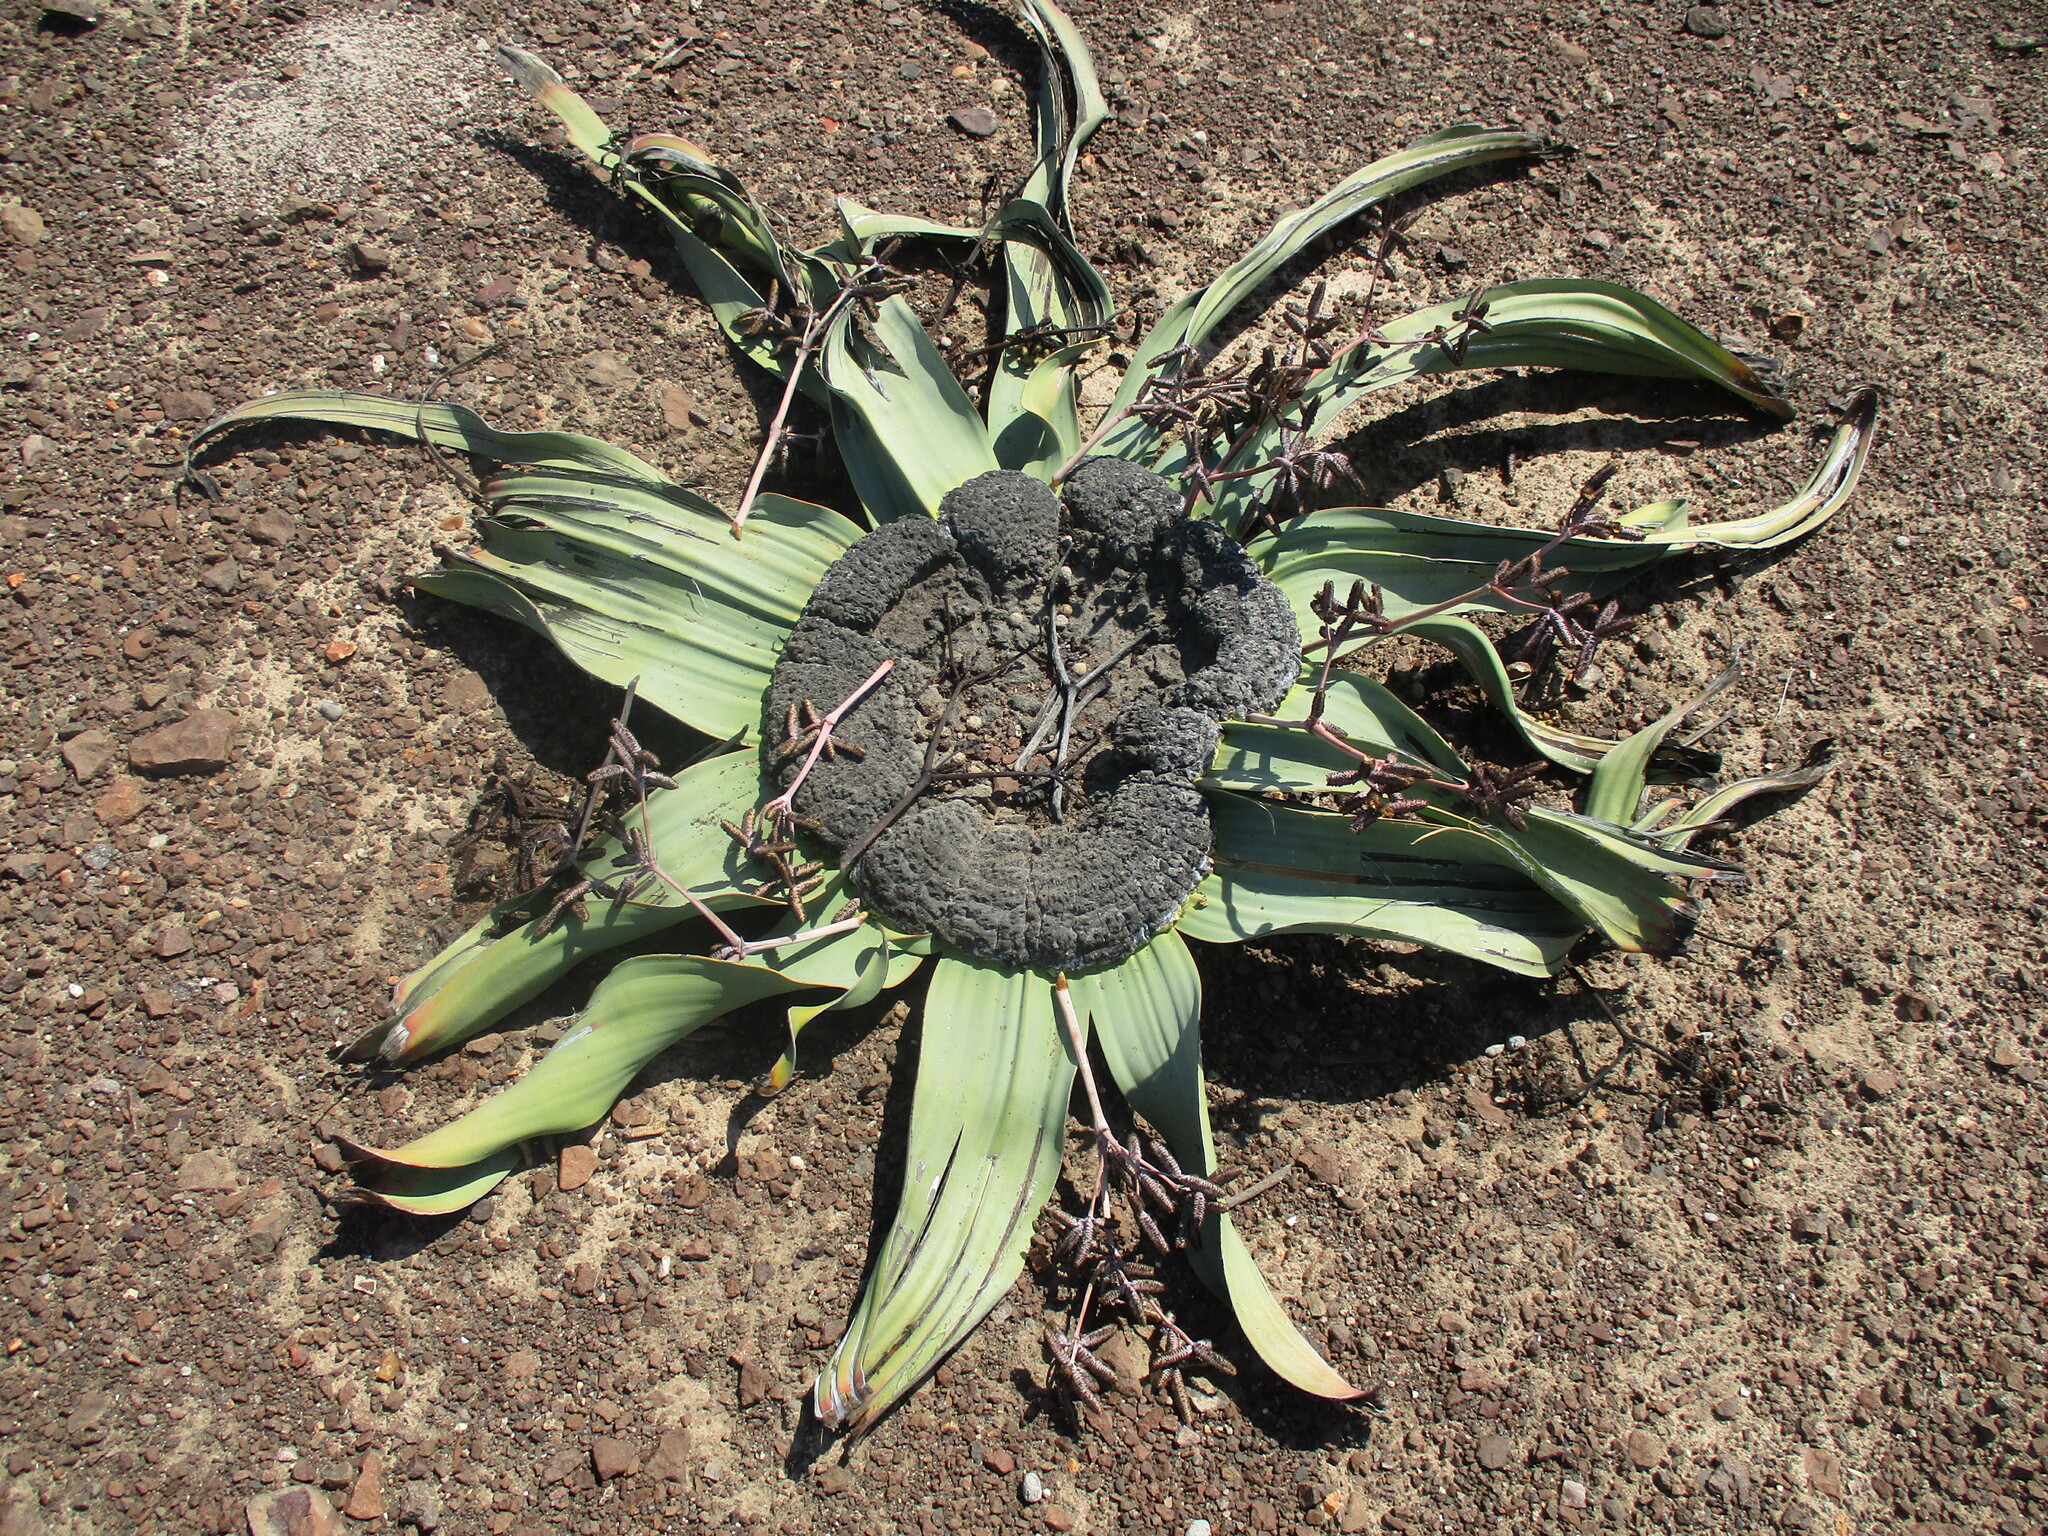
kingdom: Plantae
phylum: Tracheophyta
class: Gnetopsida
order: Welwitschiales
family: Welwitschiaceae
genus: Welwitschia
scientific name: Welwitschia mirabilis
